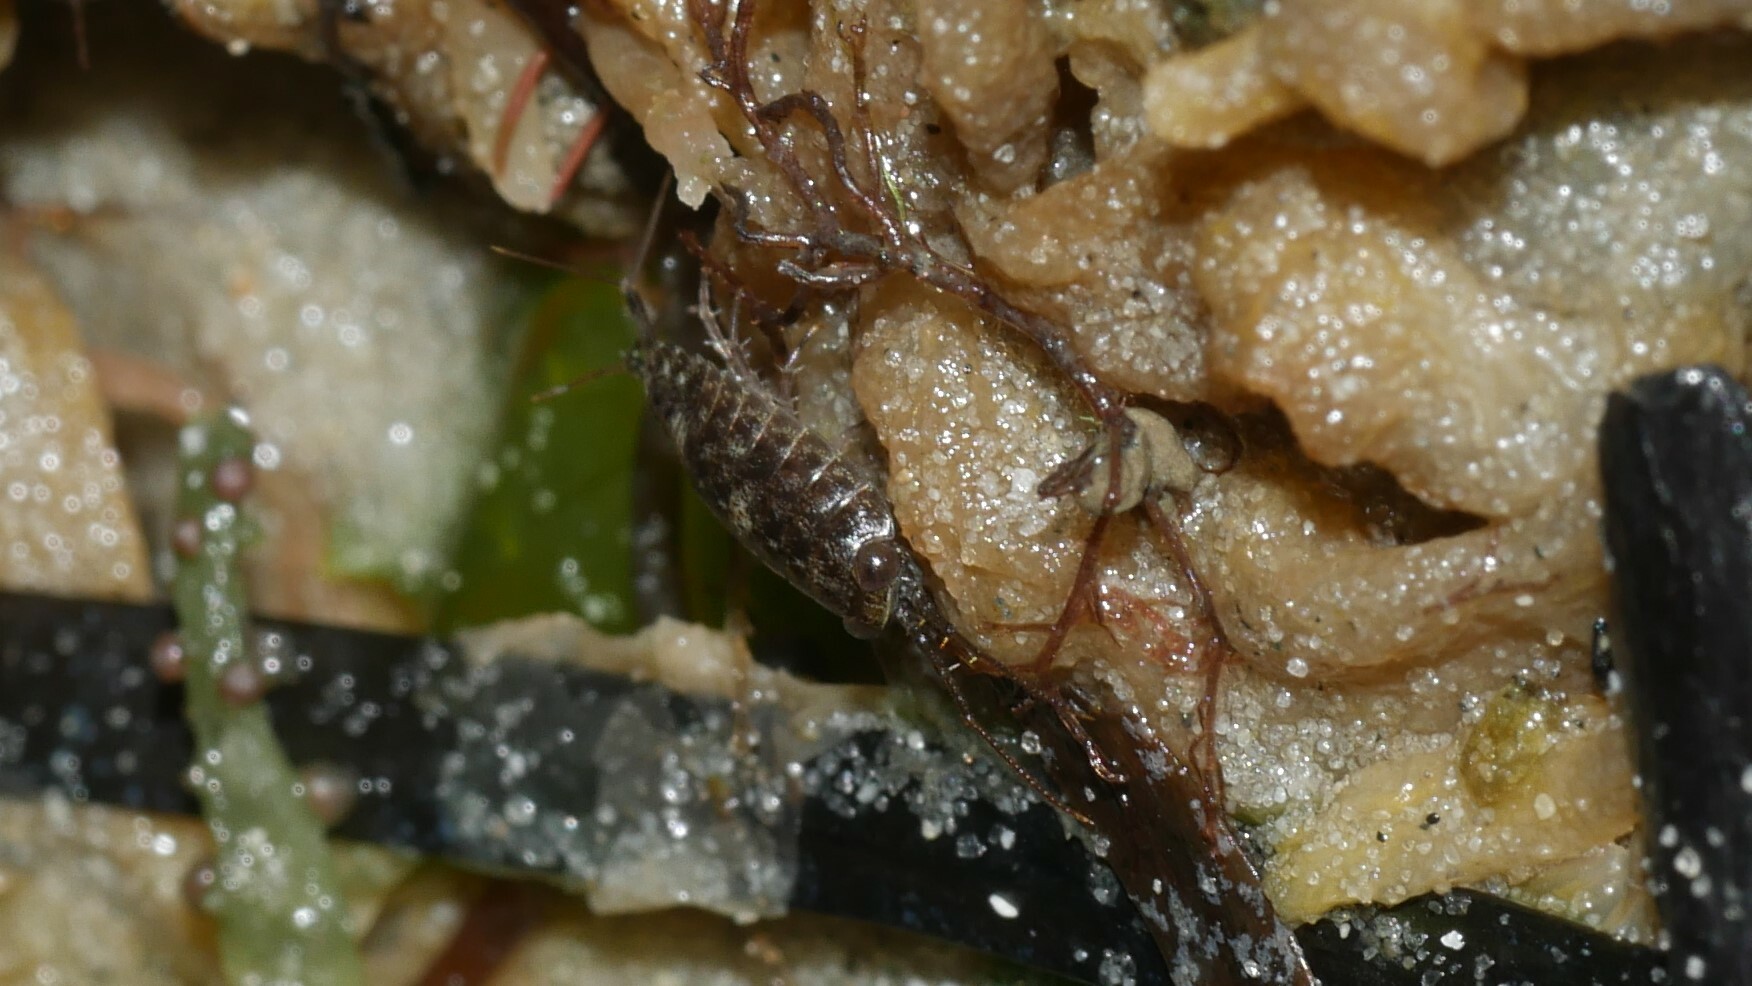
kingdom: Animalia
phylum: Arthropoda
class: Malacostraca
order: Isopoda
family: Ligiidae
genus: Ligia
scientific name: Ligia exotica
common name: Wharf roach
